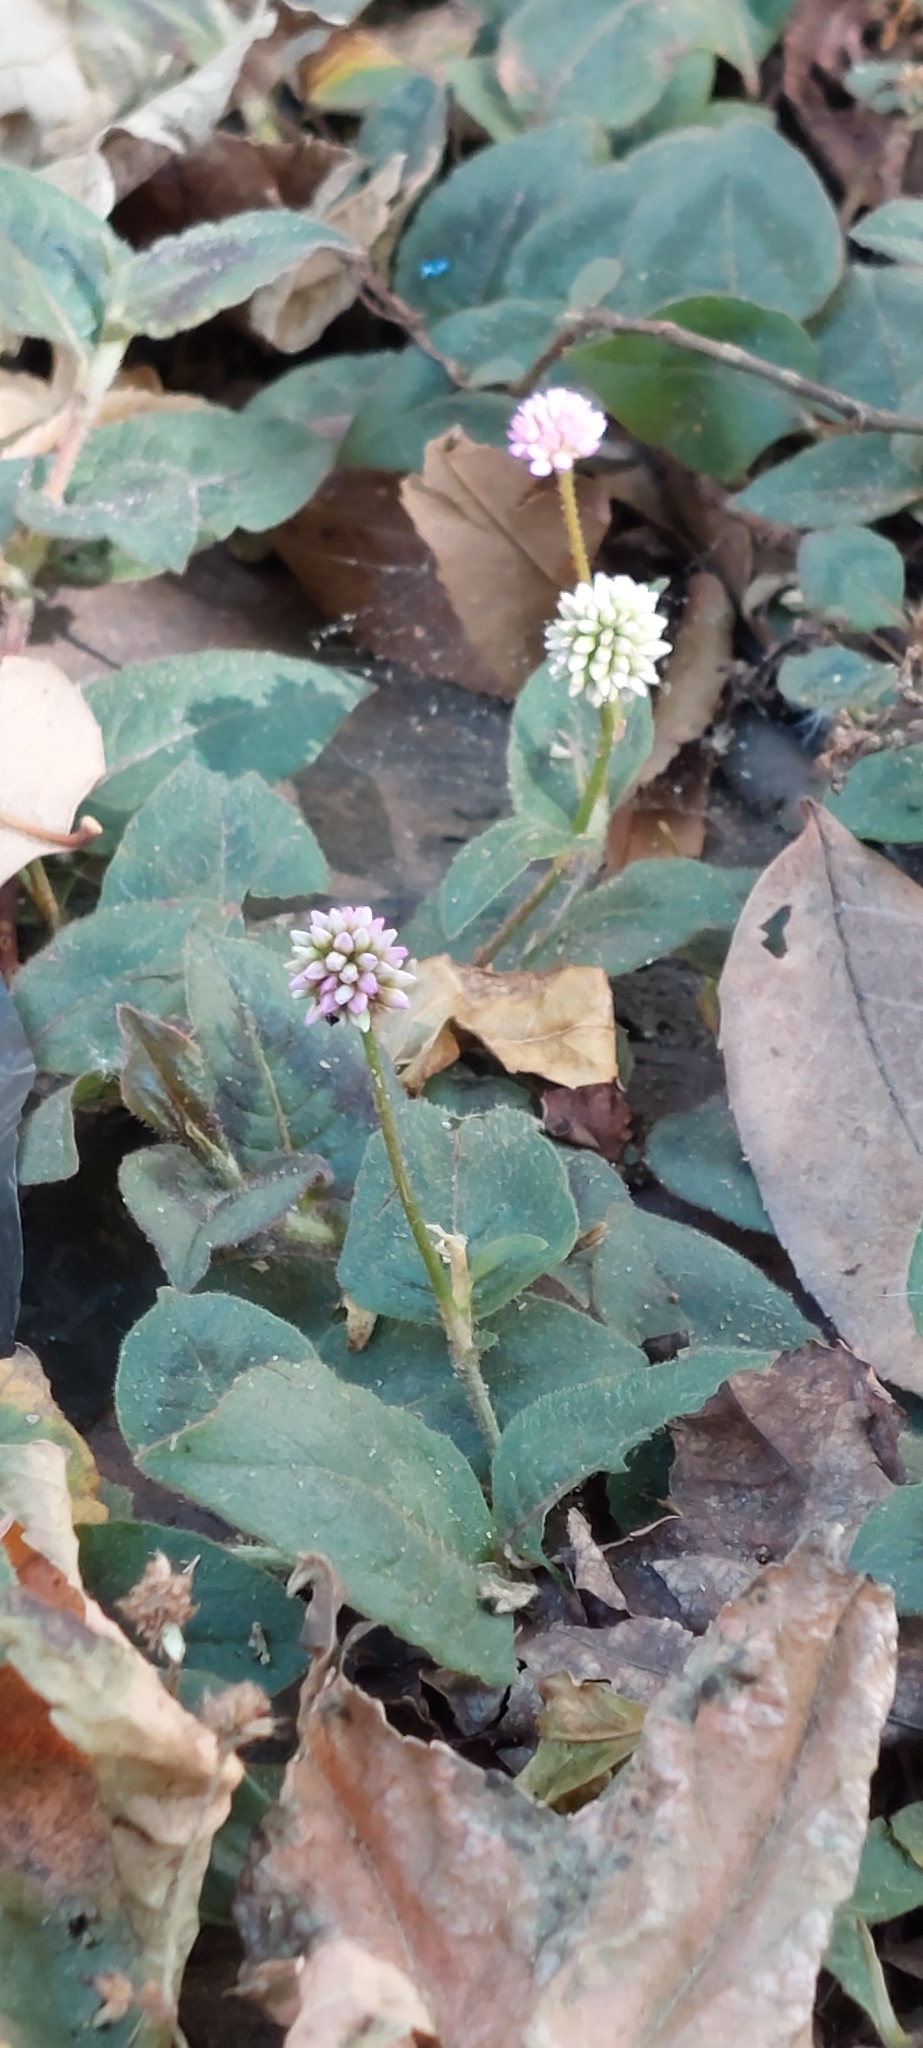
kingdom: Plantae
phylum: Tracheophyta
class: Magnoliopsida
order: Caryophyllales
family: Polygonaceae
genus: Persicaria
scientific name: Persicaria capitata
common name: Pinkhead smartweed
